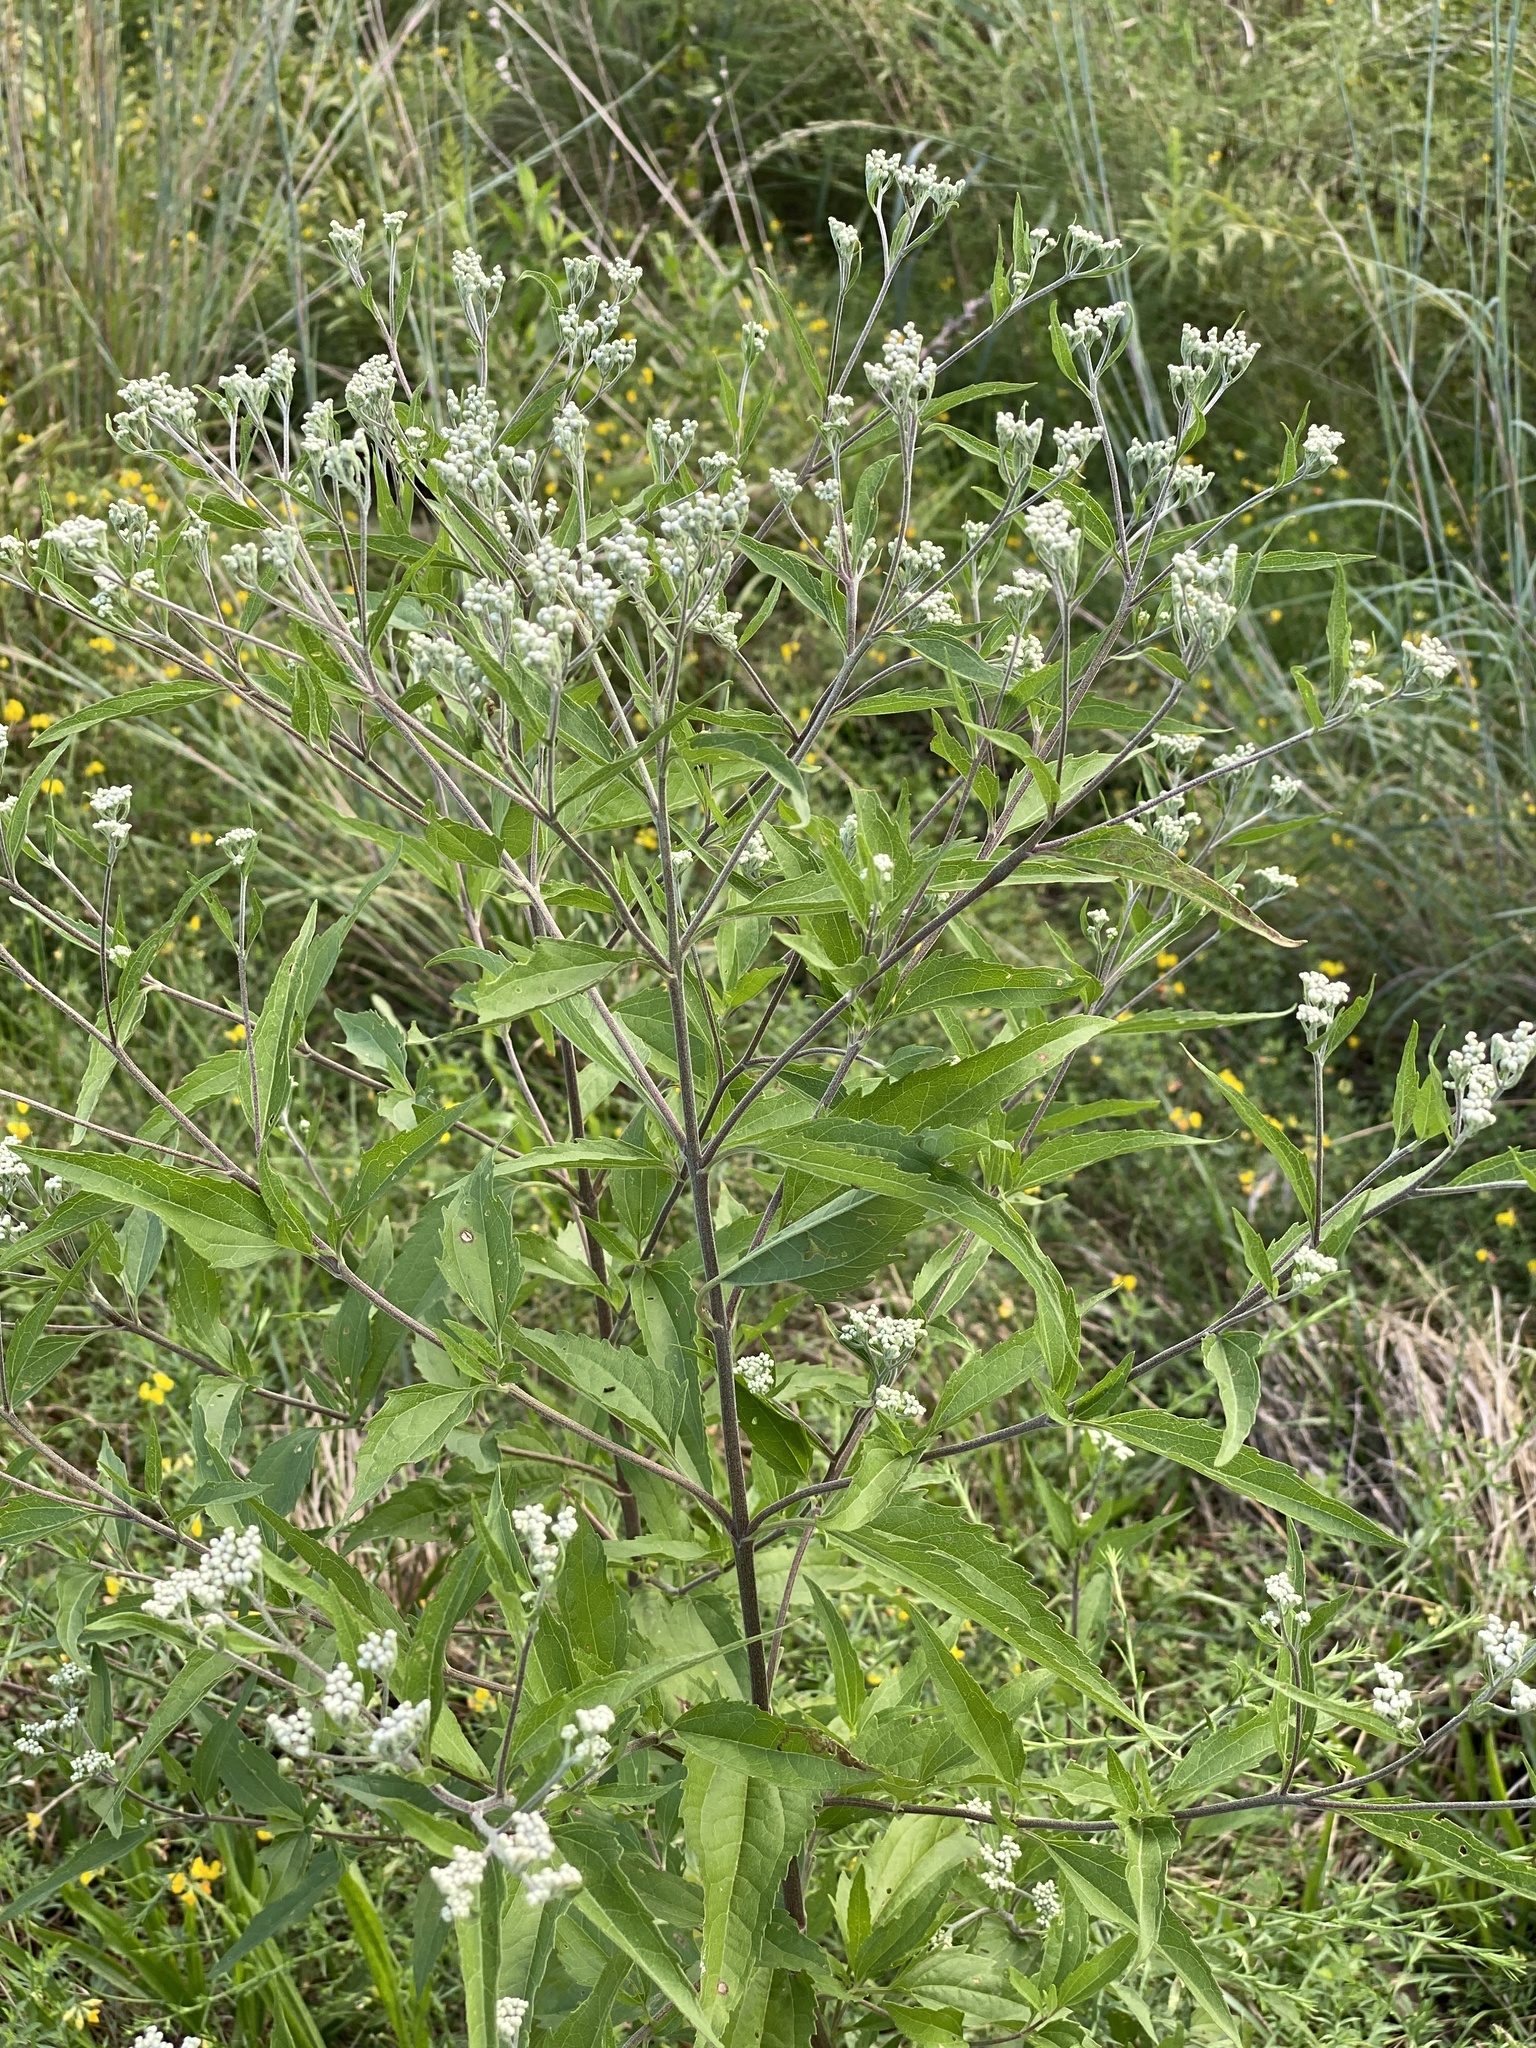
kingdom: Plantae
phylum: Tracheophyta
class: Magnoliopsida
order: Asterales
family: Asteraceae
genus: Eupatorium
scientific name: Eupatorium serotinum
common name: Late boneset
